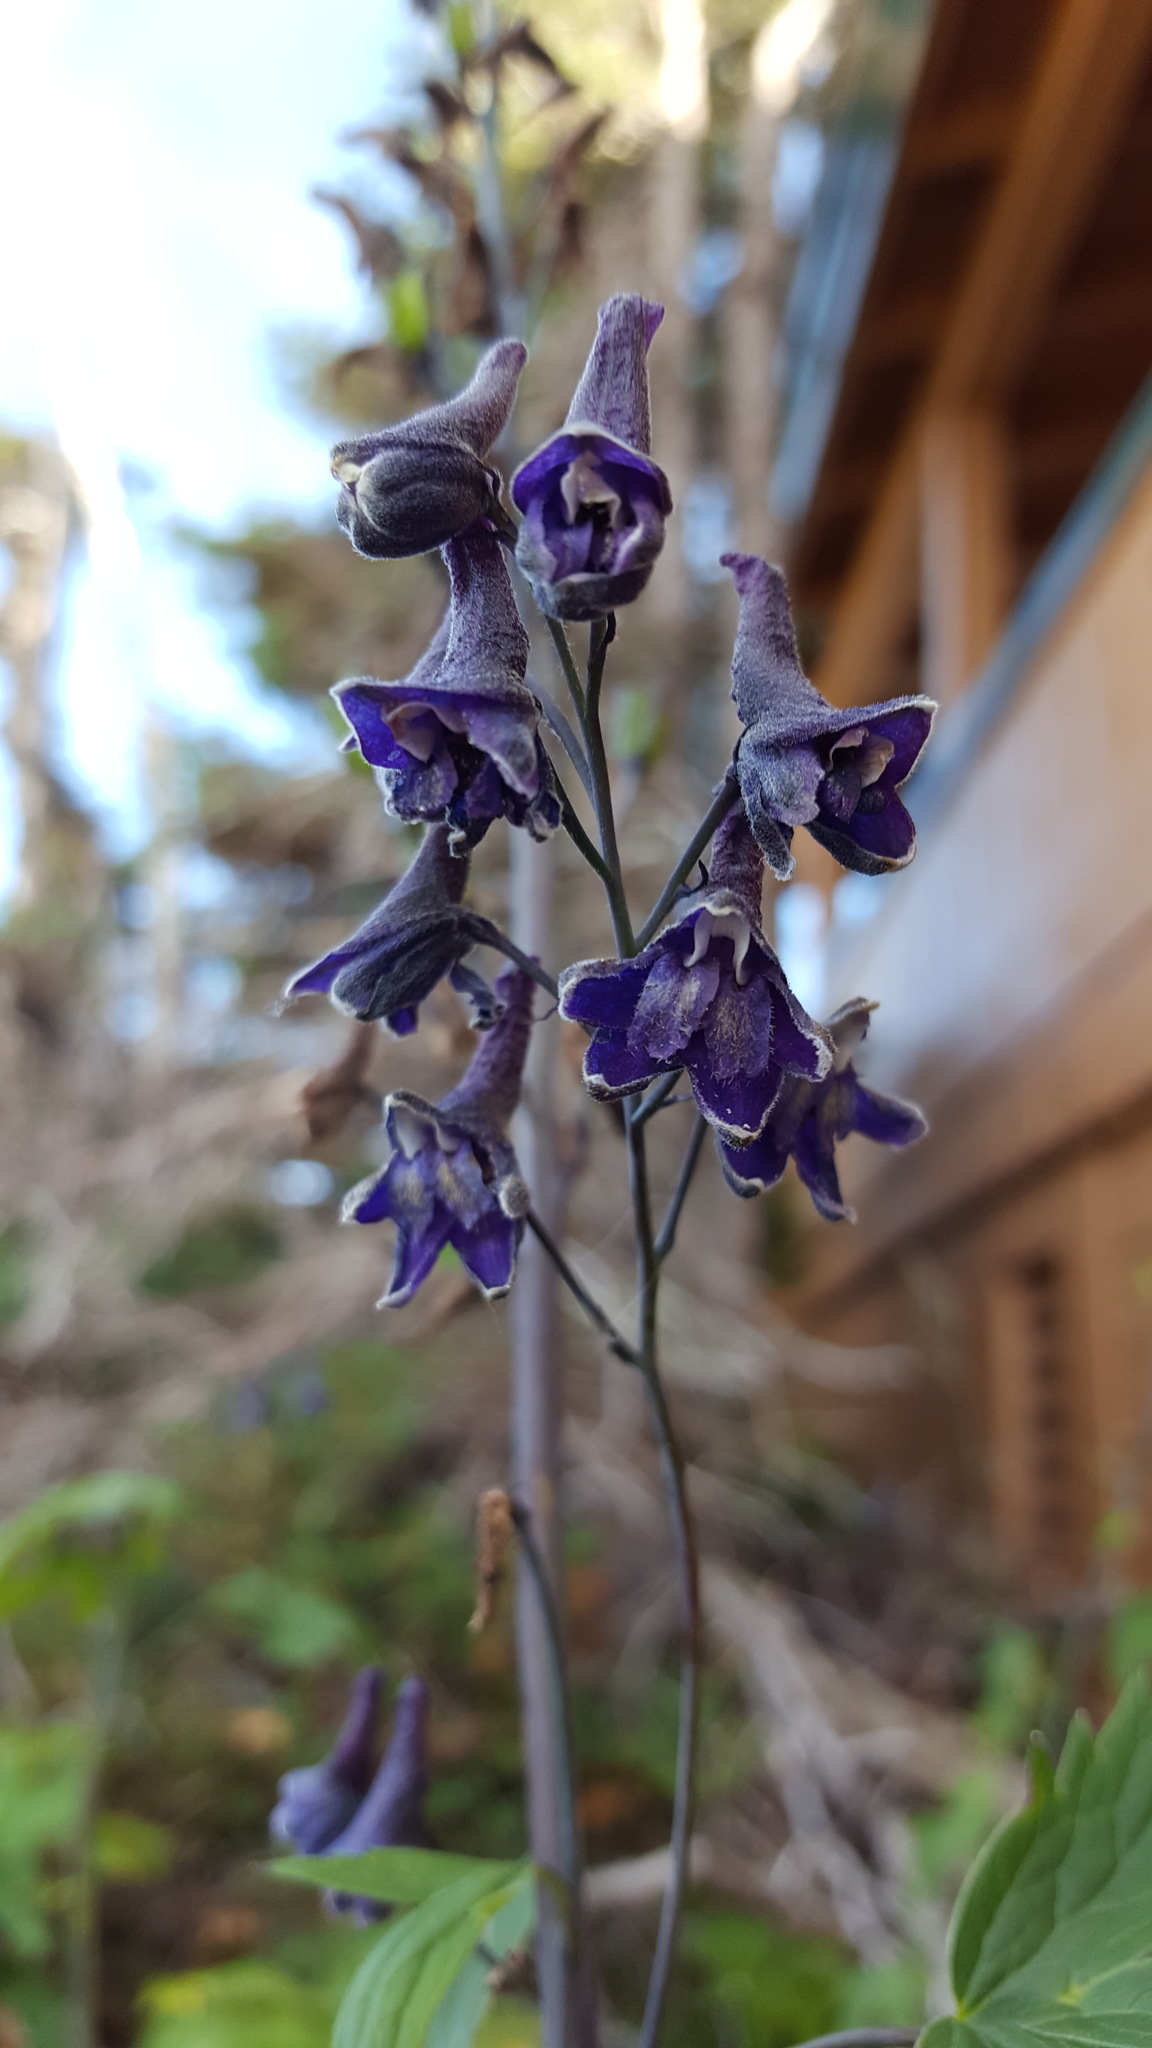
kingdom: Plantae
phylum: Tracheophyta
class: Magnoliopsida
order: Ranunculales
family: Ranunculaceae
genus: Delphinium
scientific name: Delphinium glaucum
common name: Brown's larkspur
